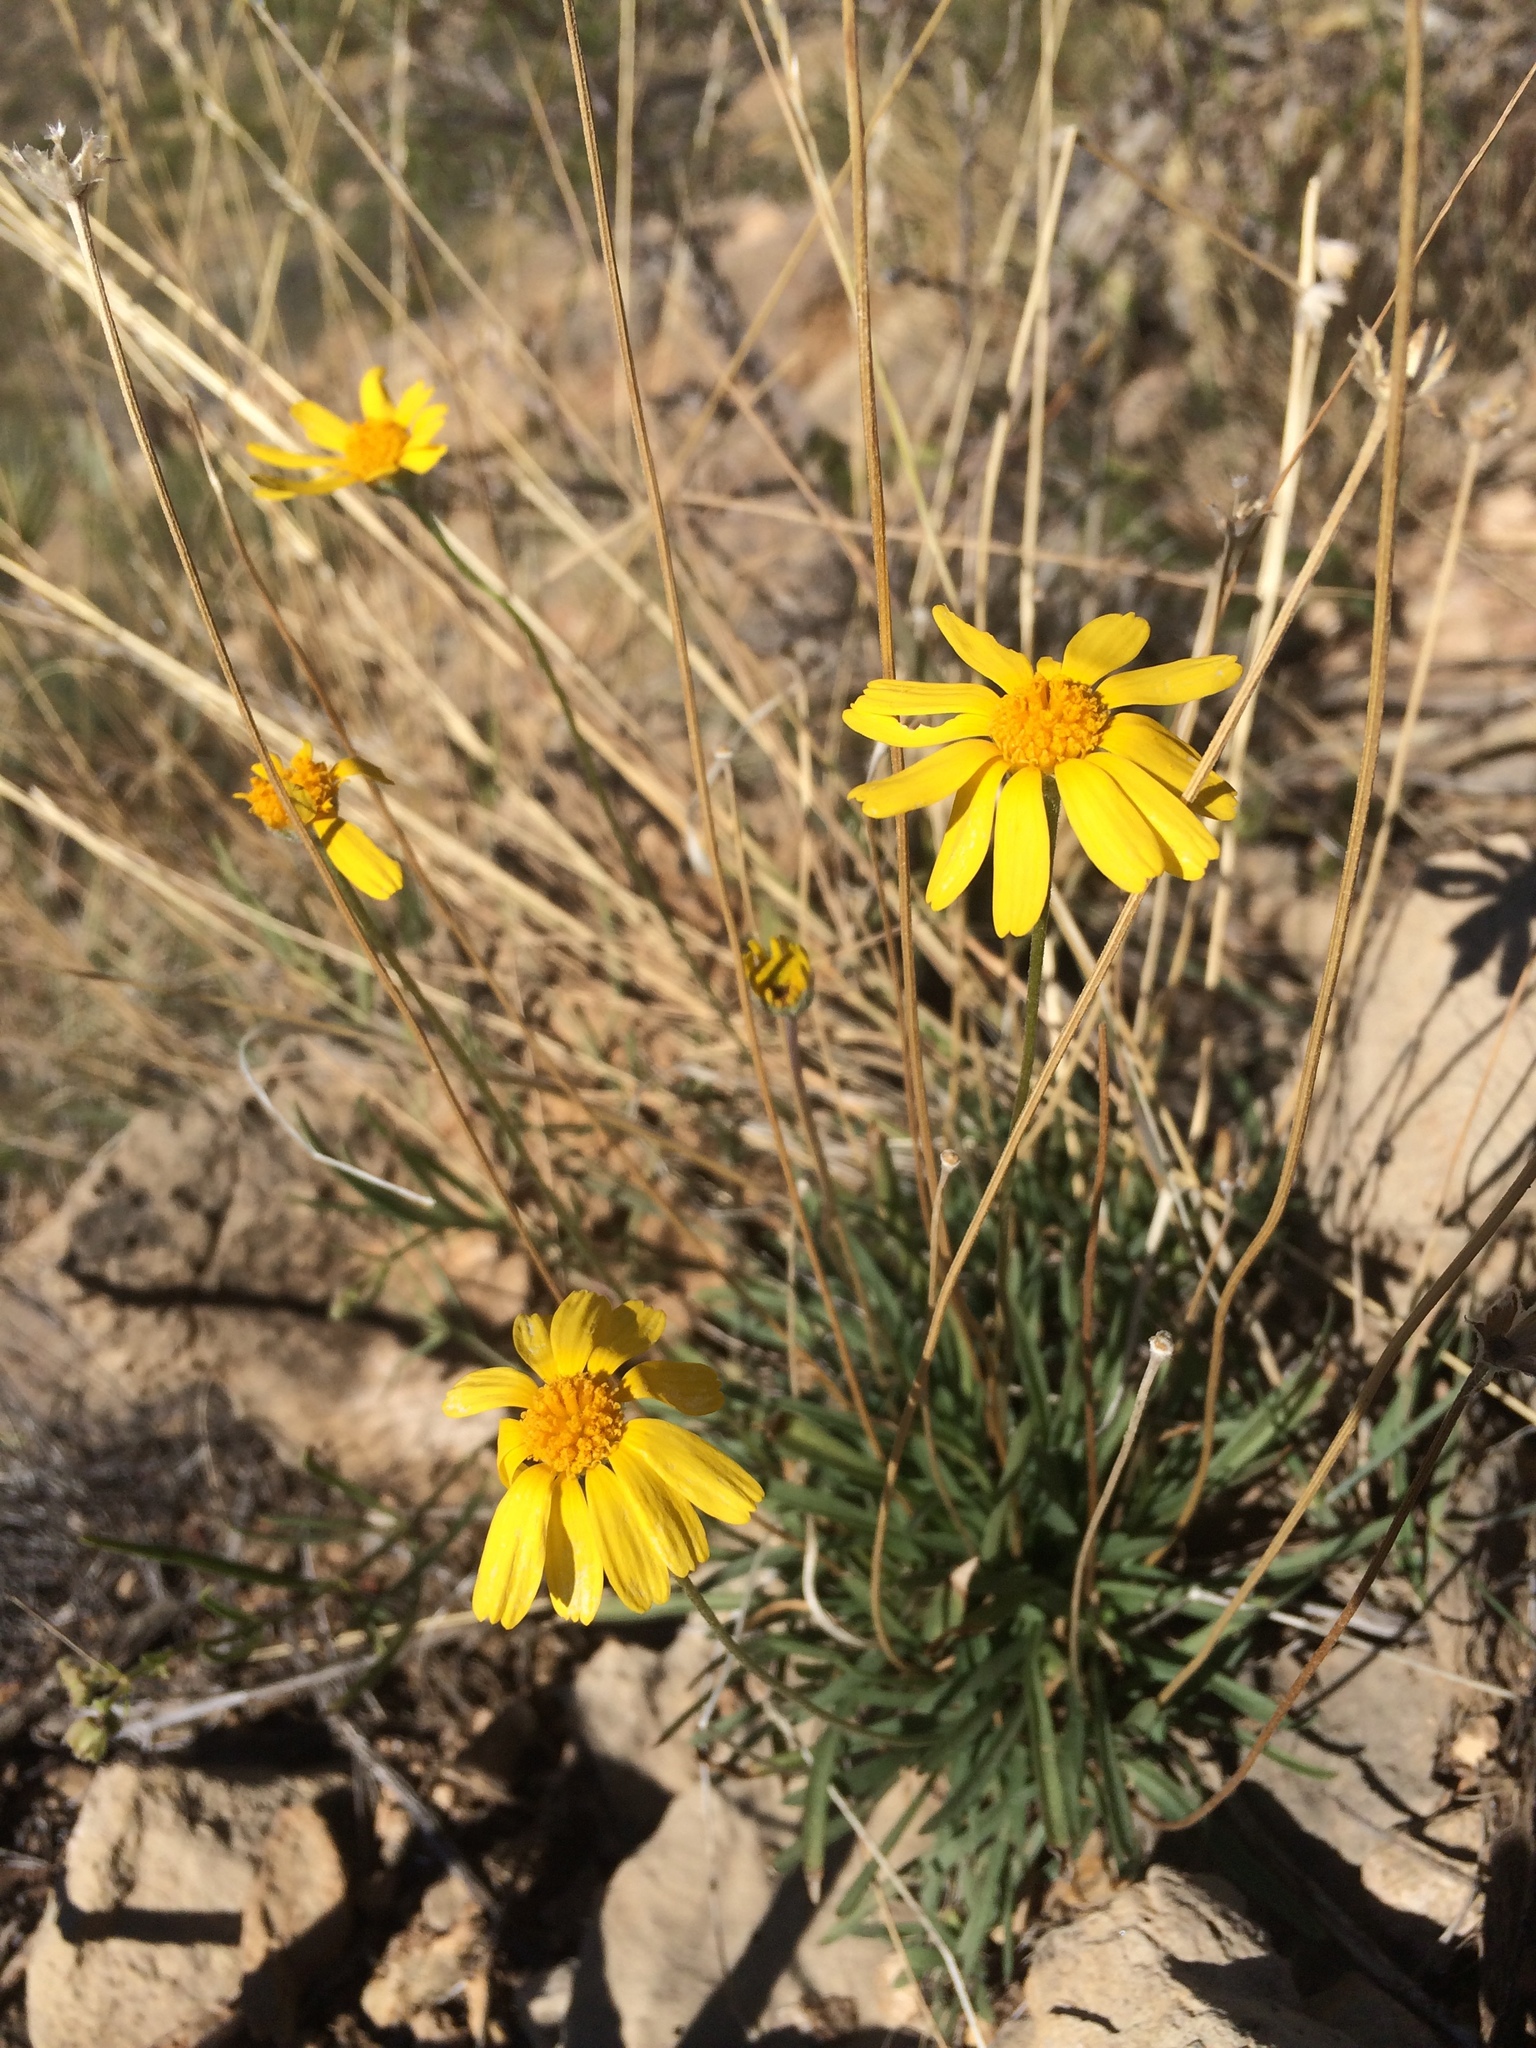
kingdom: Plantae
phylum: Tracheophyta
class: Magnoliopsida
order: Asterales
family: Asteraceae
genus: Tetraneuris
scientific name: Tetraneuris scaposa
